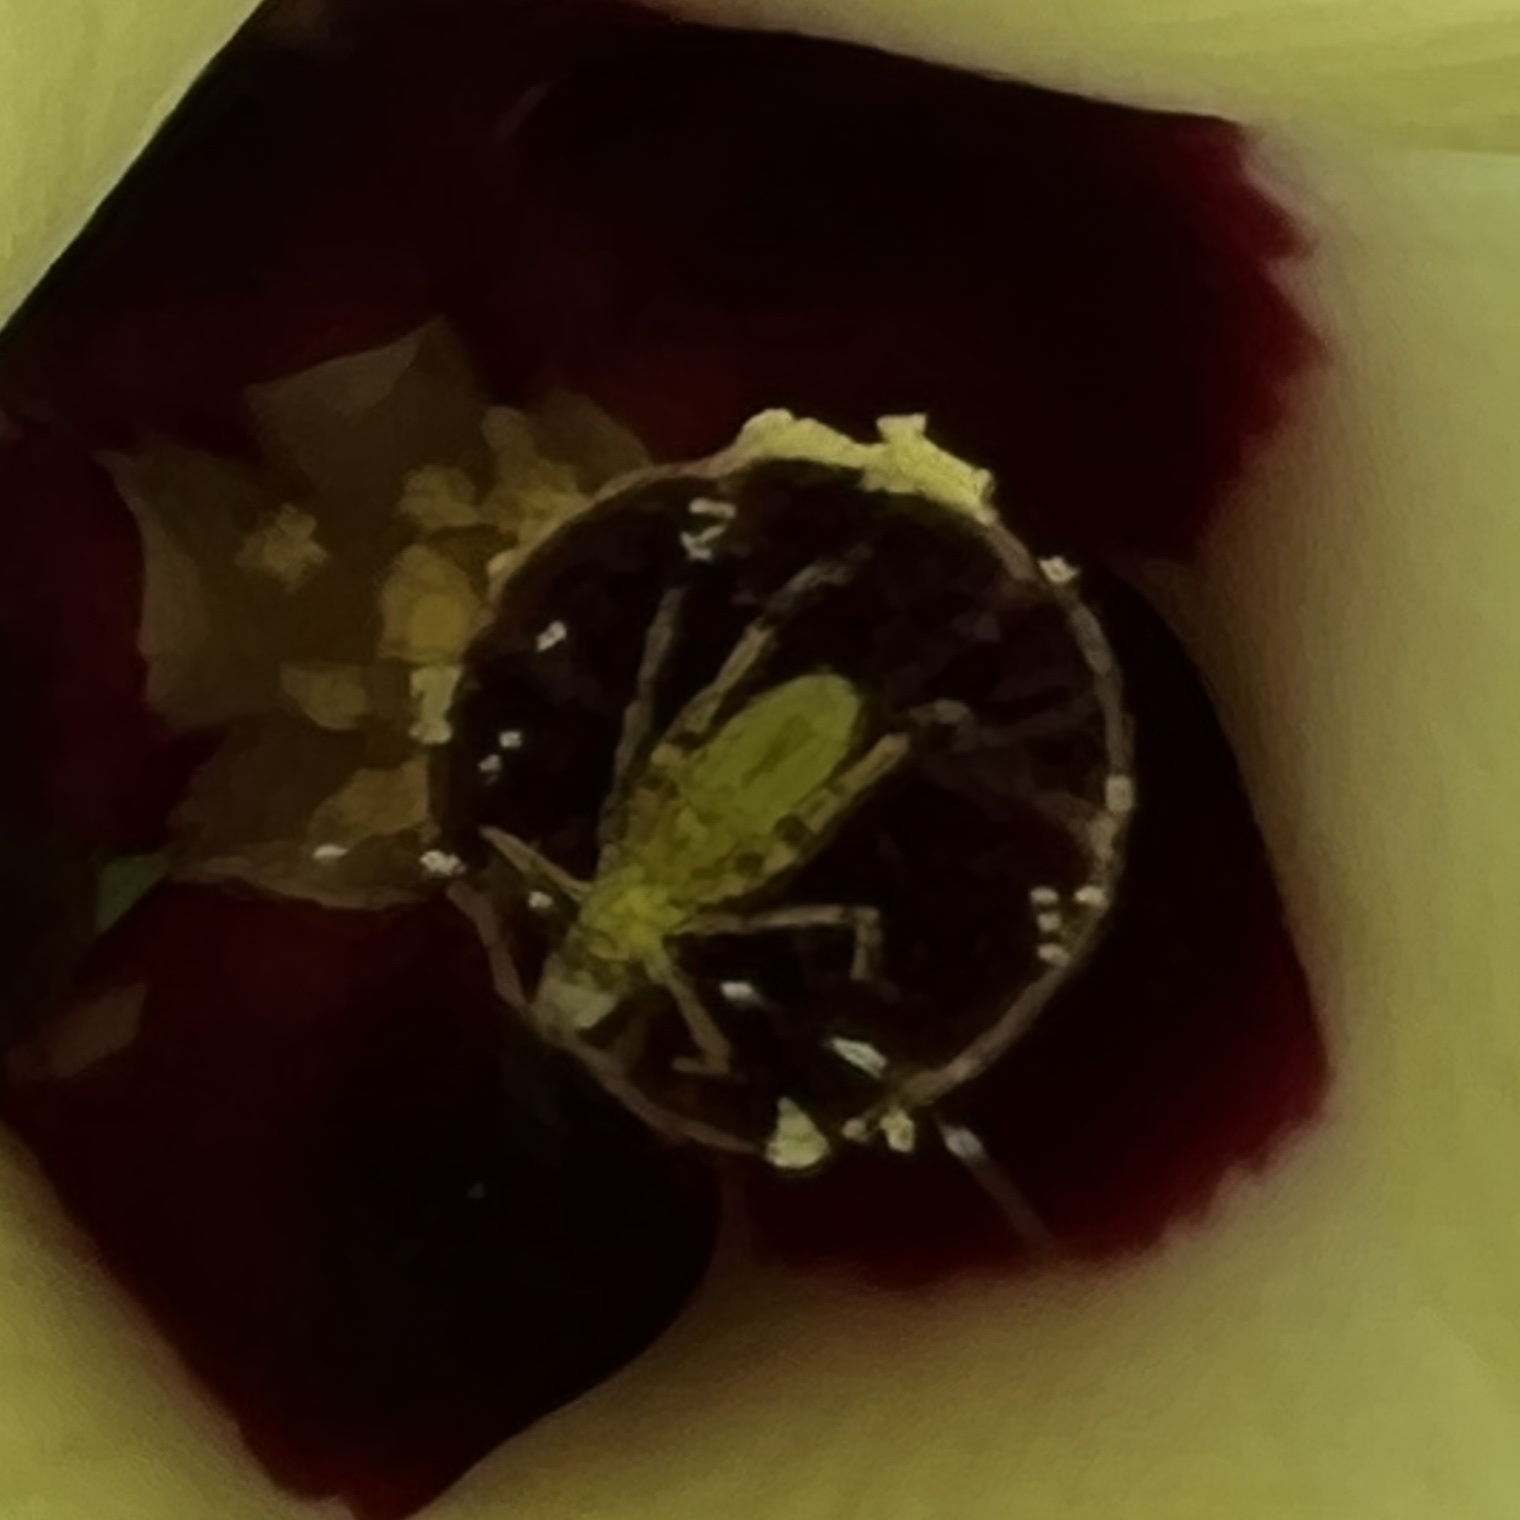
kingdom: Animalia
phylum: Arthropoda
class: Insecta
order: Orthoptera
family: Tettigoniidae
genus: Scudderia
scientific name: Scudderia furcata
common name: Fork-tailed bush katydid
